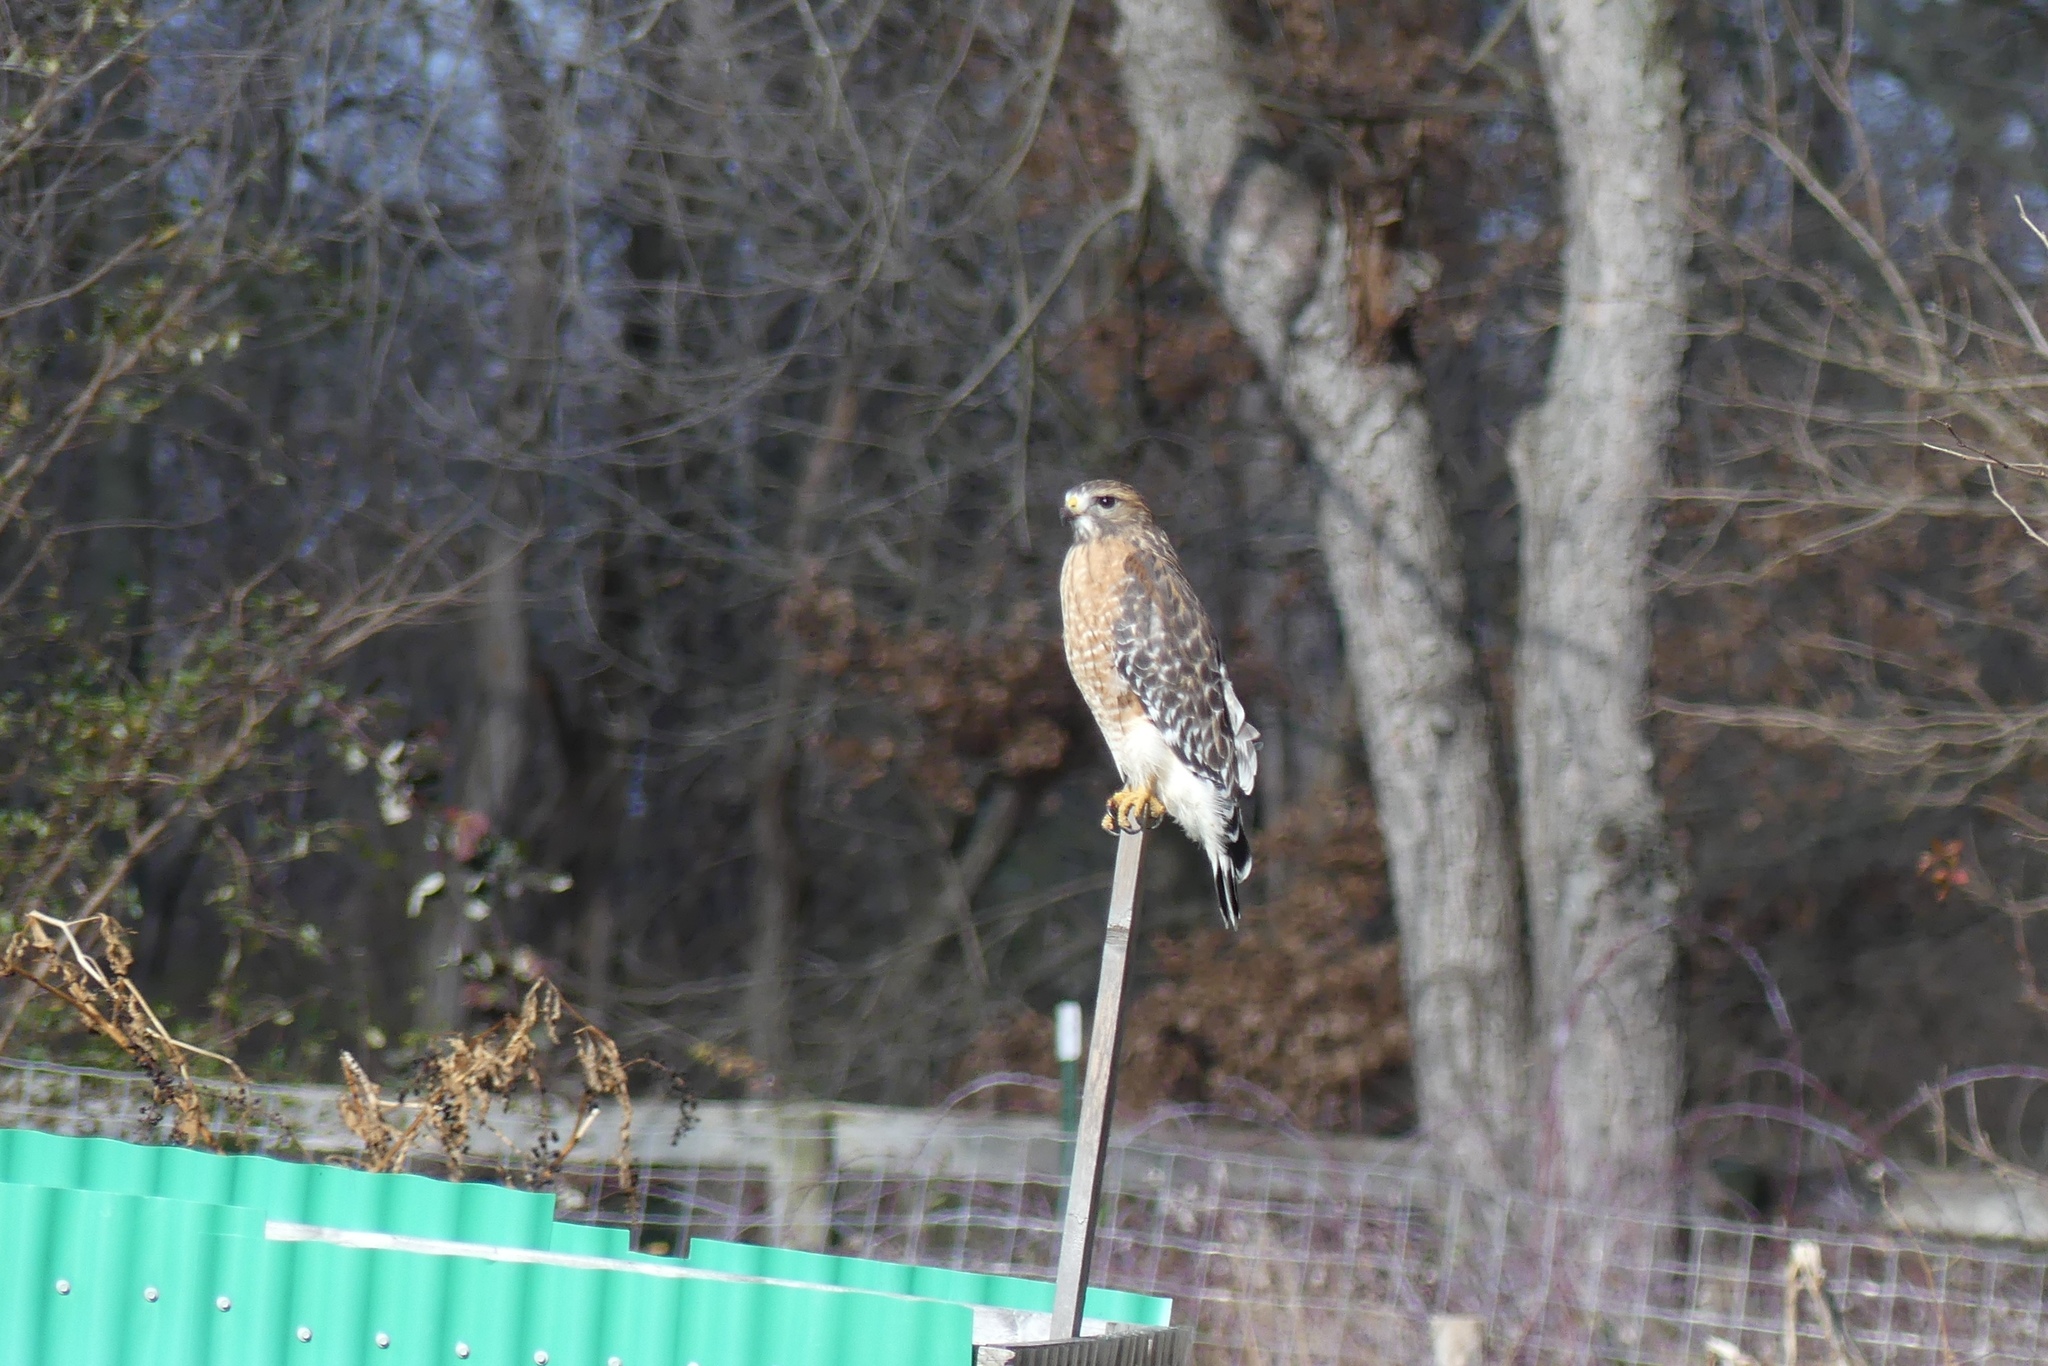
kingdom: Animalia
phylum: Chordata
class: Aves
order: Accipitriformes
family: Accipitridae
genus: Buteo
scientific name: Buteo lineatus
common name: Red-shouldered hawk
